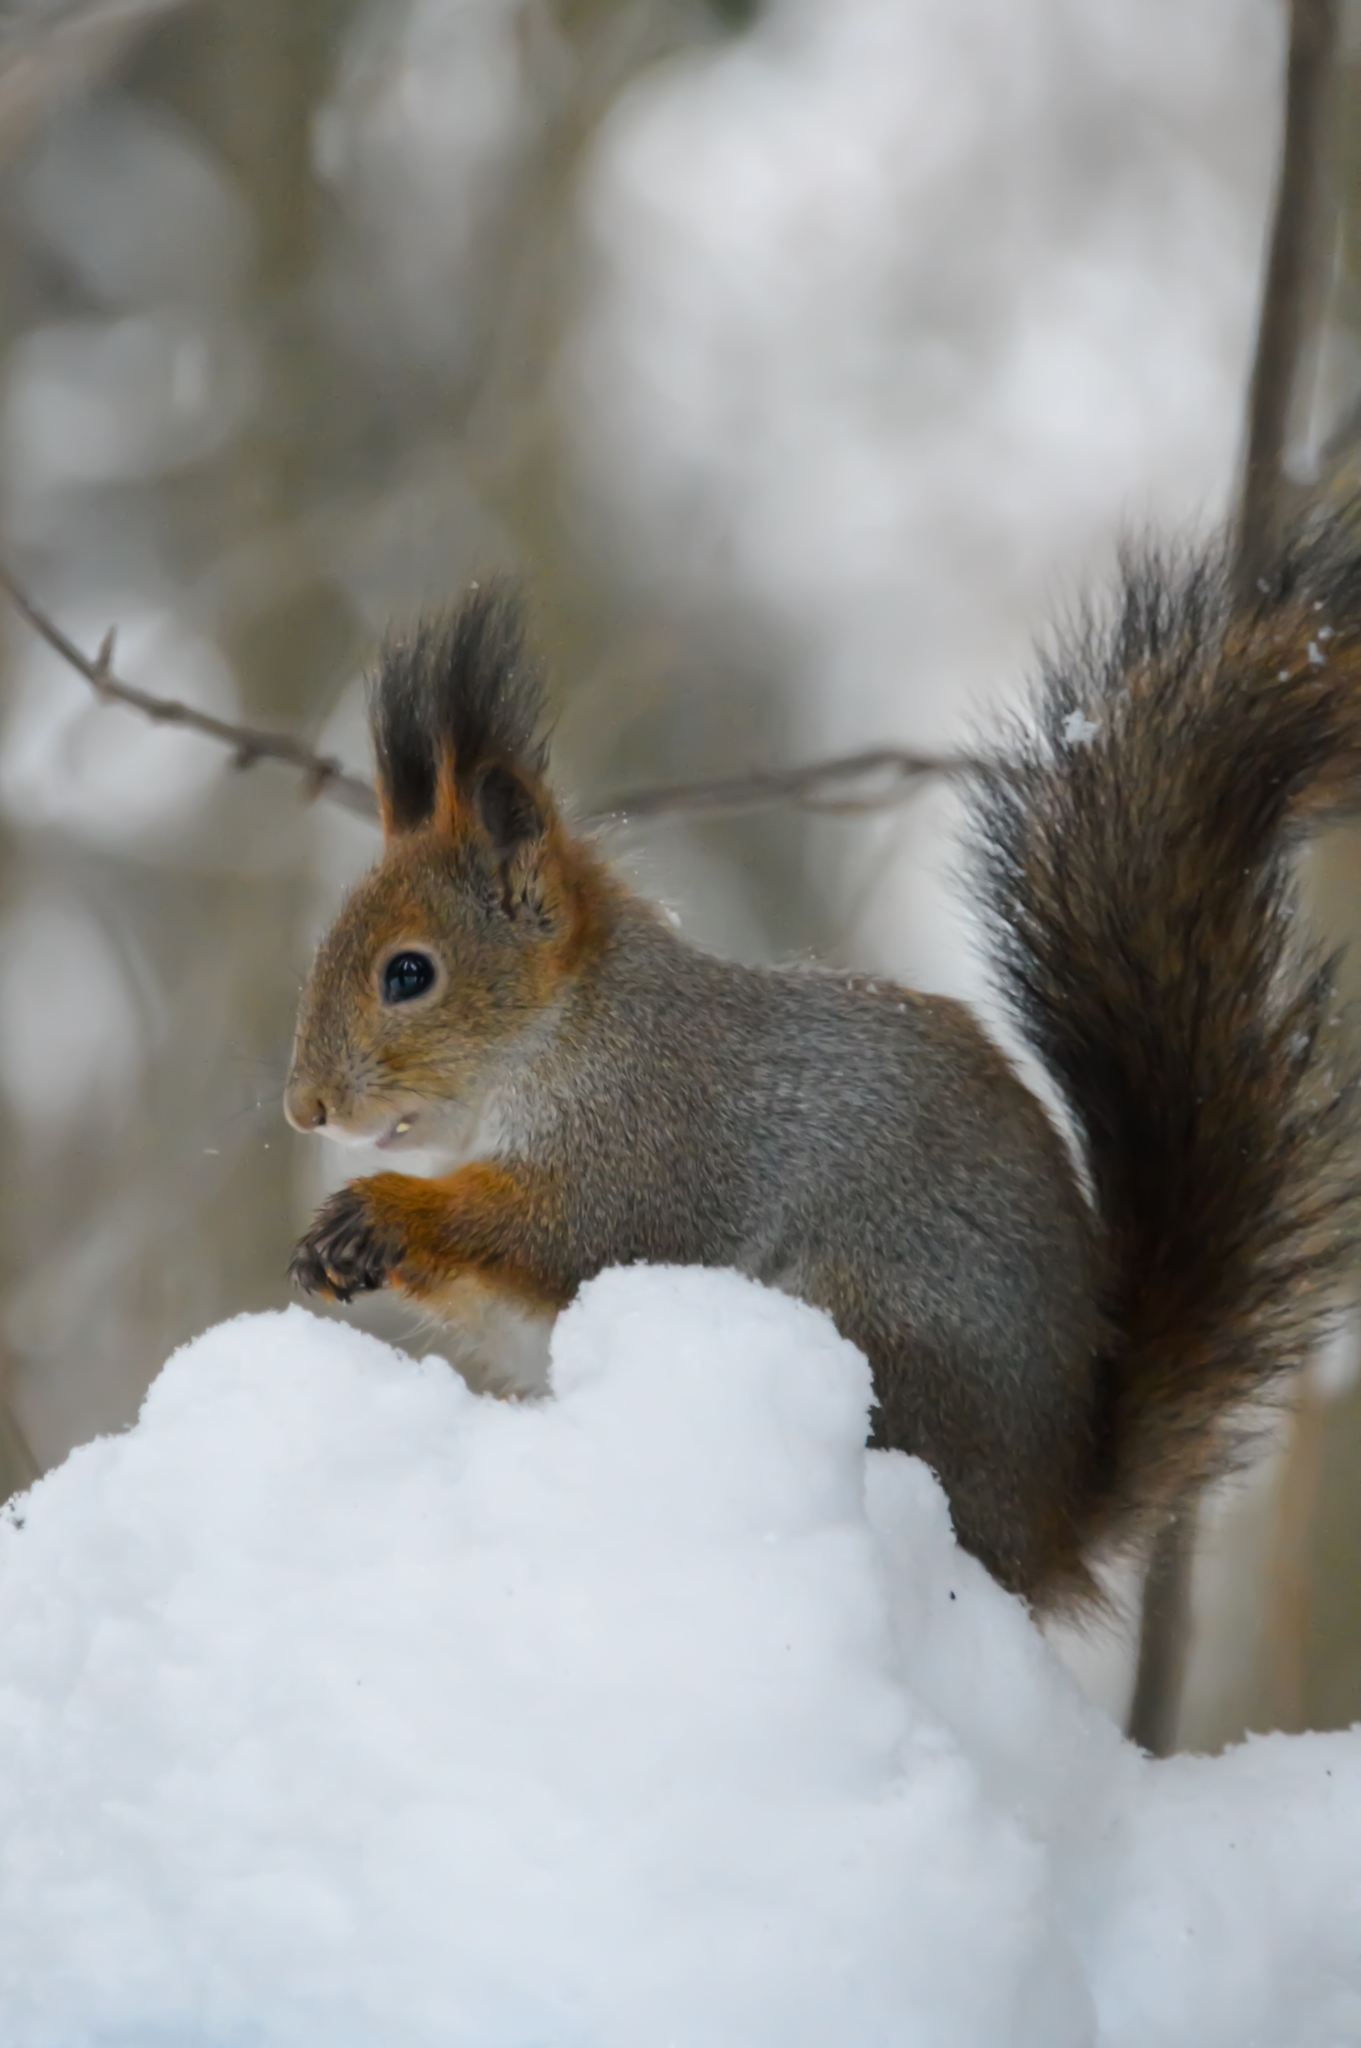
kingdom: Animalia
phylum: Chordata
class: Mammalia
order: Rodentia
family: Sciuridae
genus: Sciurus
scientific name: Sciurus vulgaris
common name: Eurasian red squirrel
